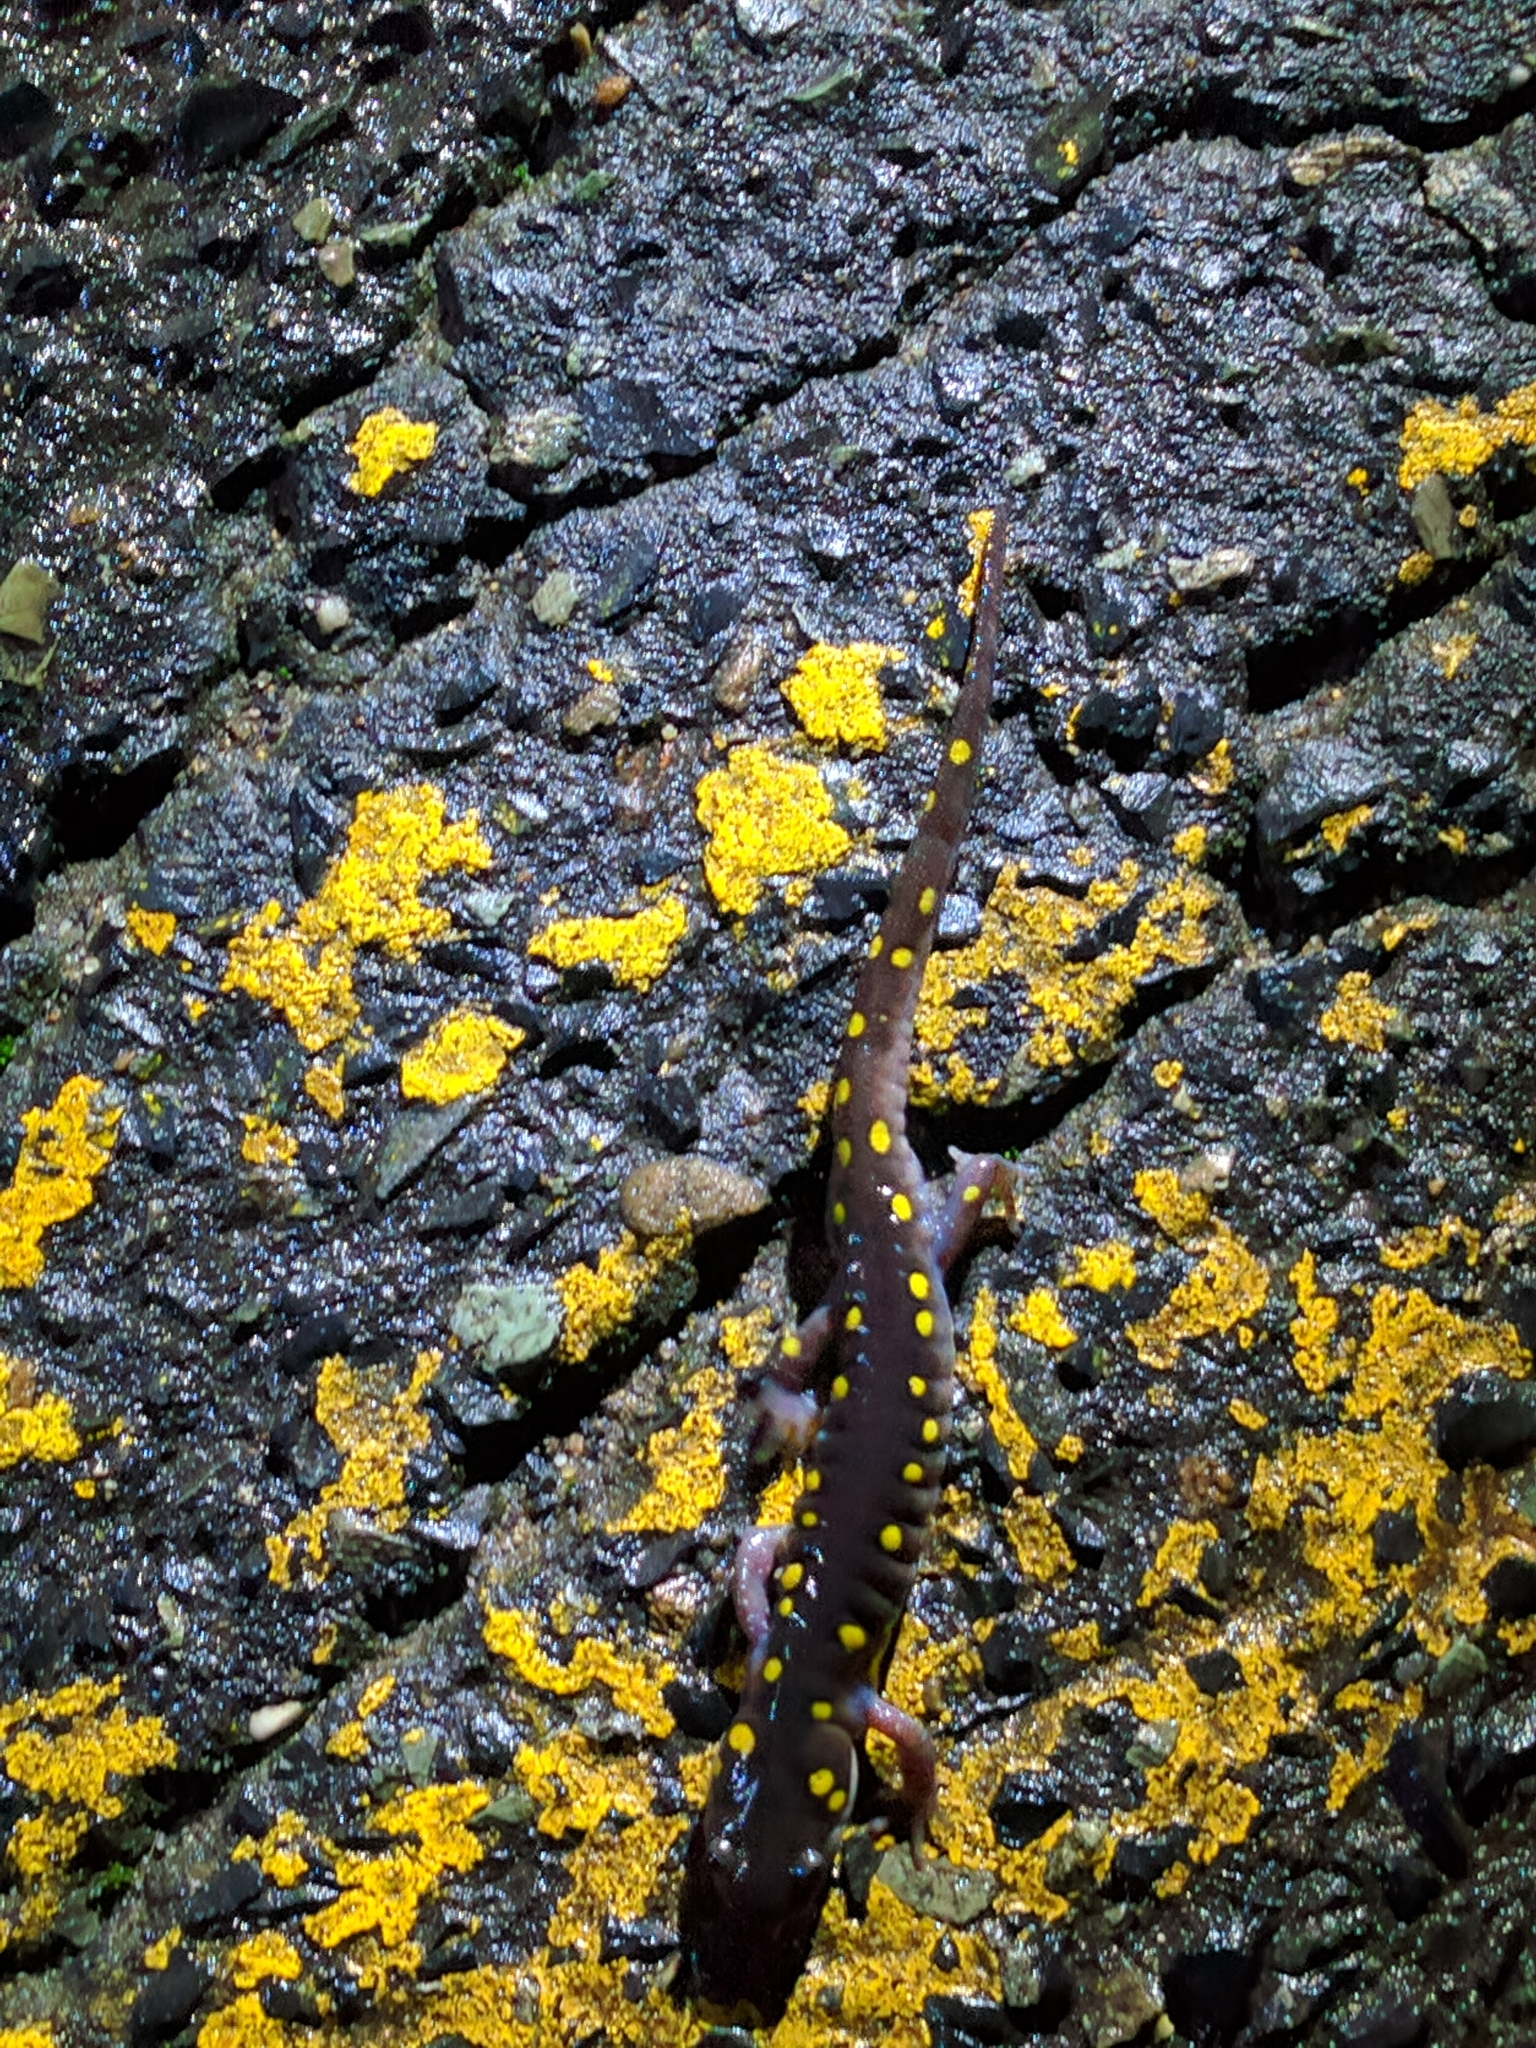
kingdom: Animalia
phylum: Chordata
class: Amphibia
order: Caudata
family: Ambystomatidae
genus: Ambystoma
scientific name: Ambystoma maculatum
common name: Spotted salamander
